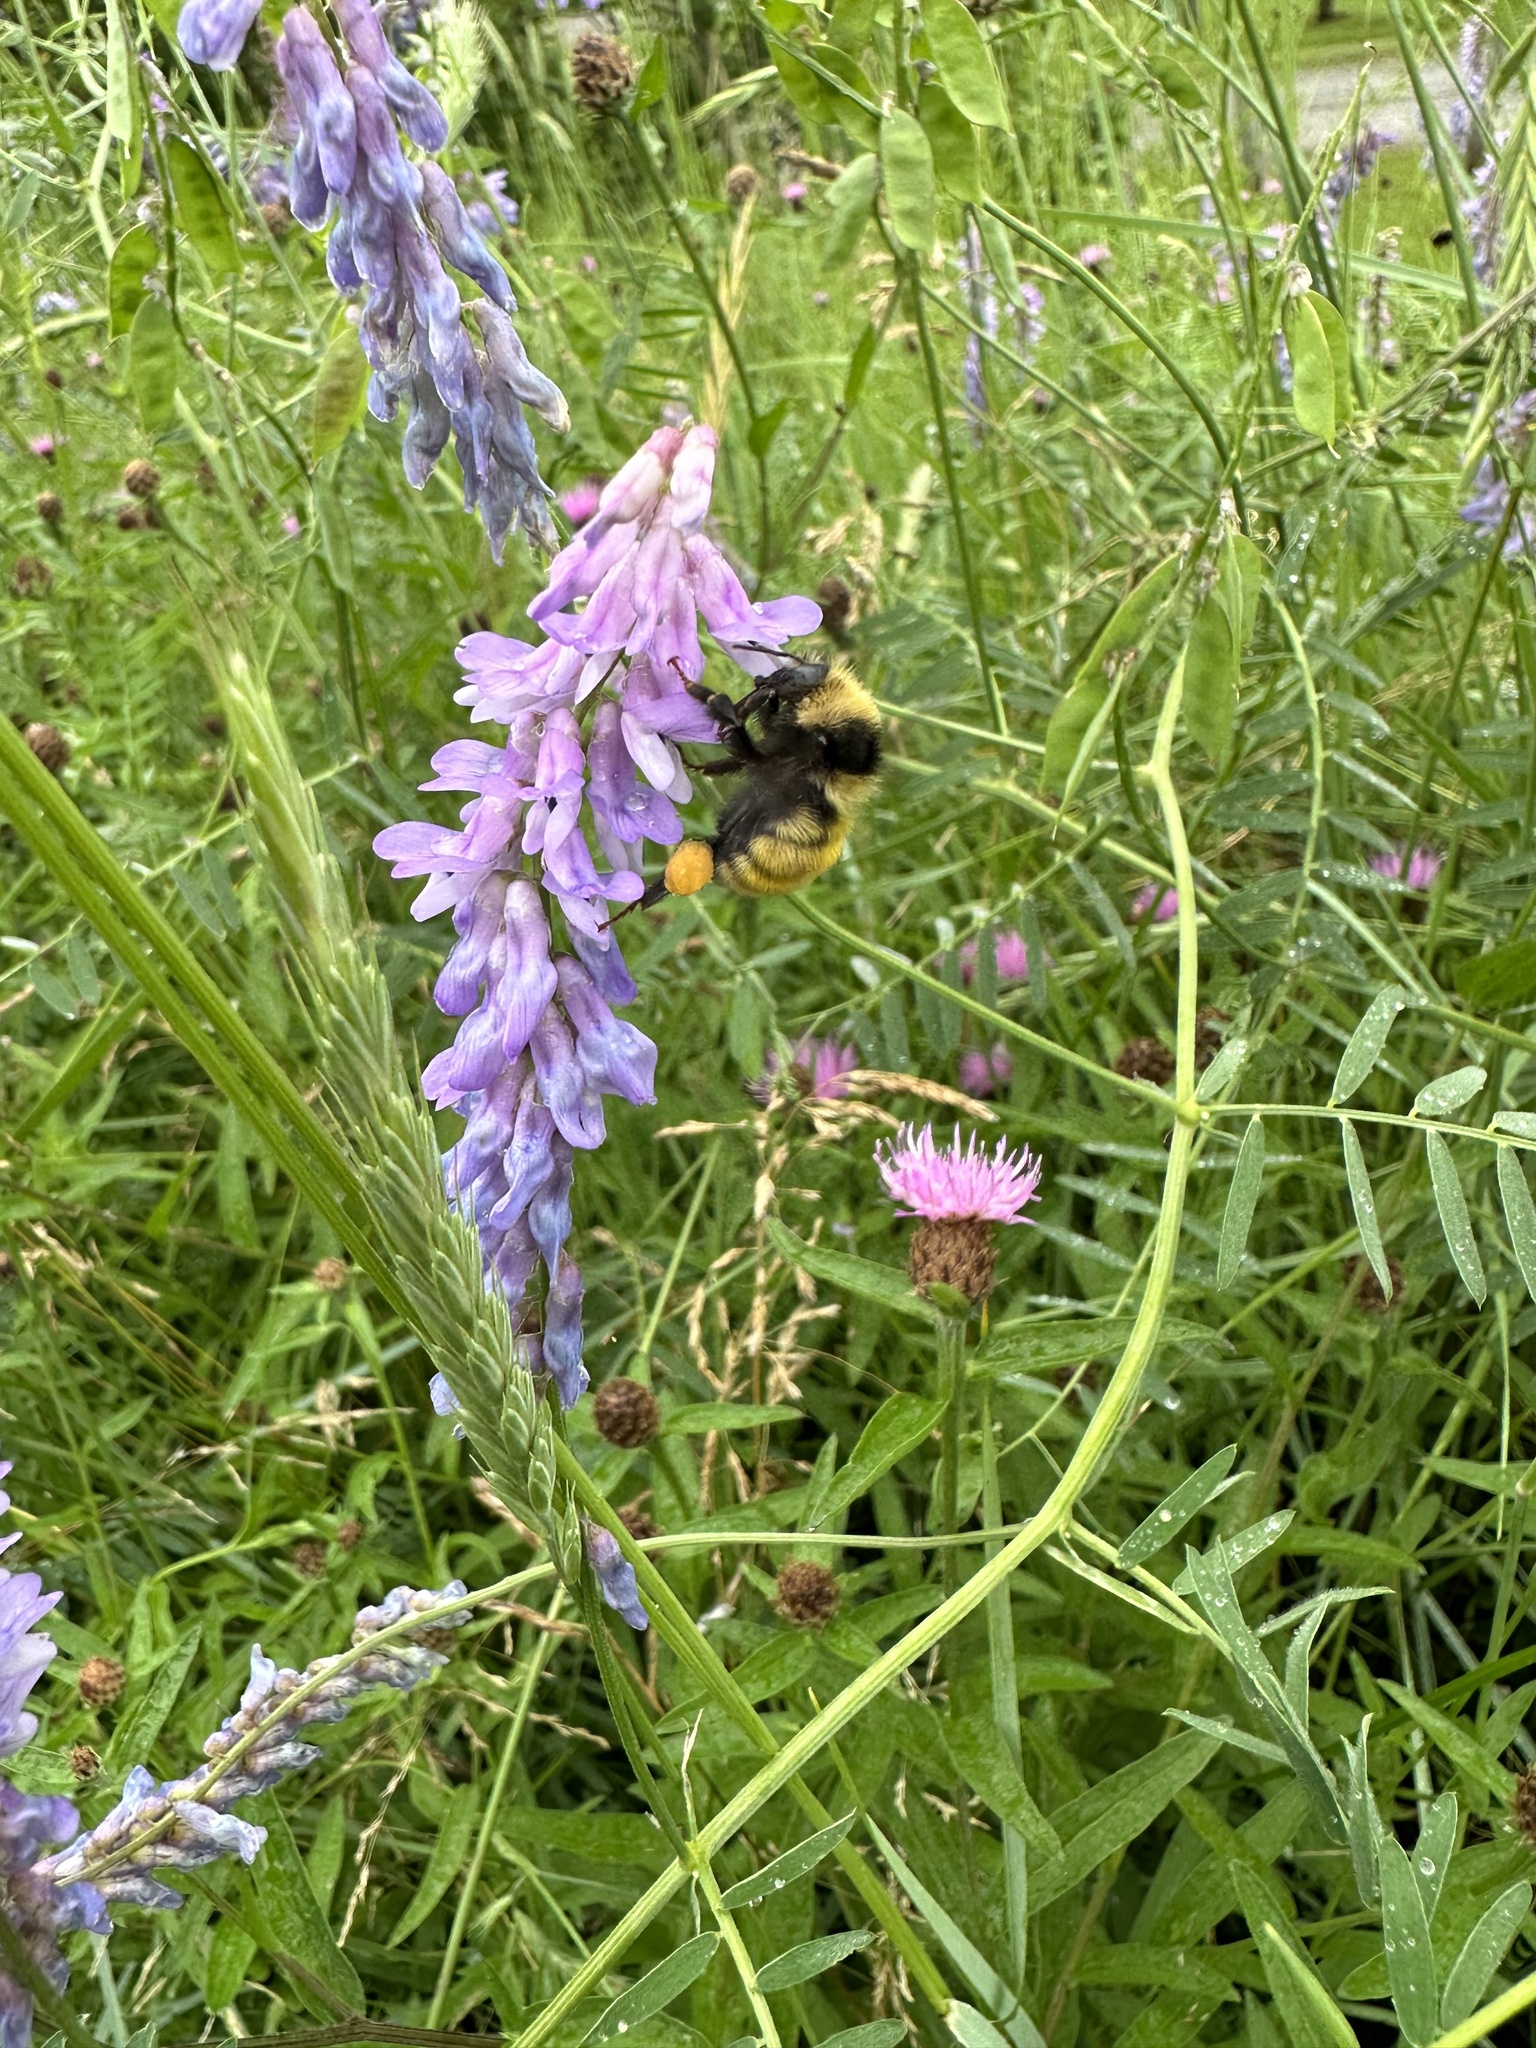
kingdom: Animalia
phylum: Arthropoda
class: Insecta
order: Hymenoptera
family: Apidae
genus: Bombus
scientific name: Bombus borealis
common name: Northern amber bumble bee
